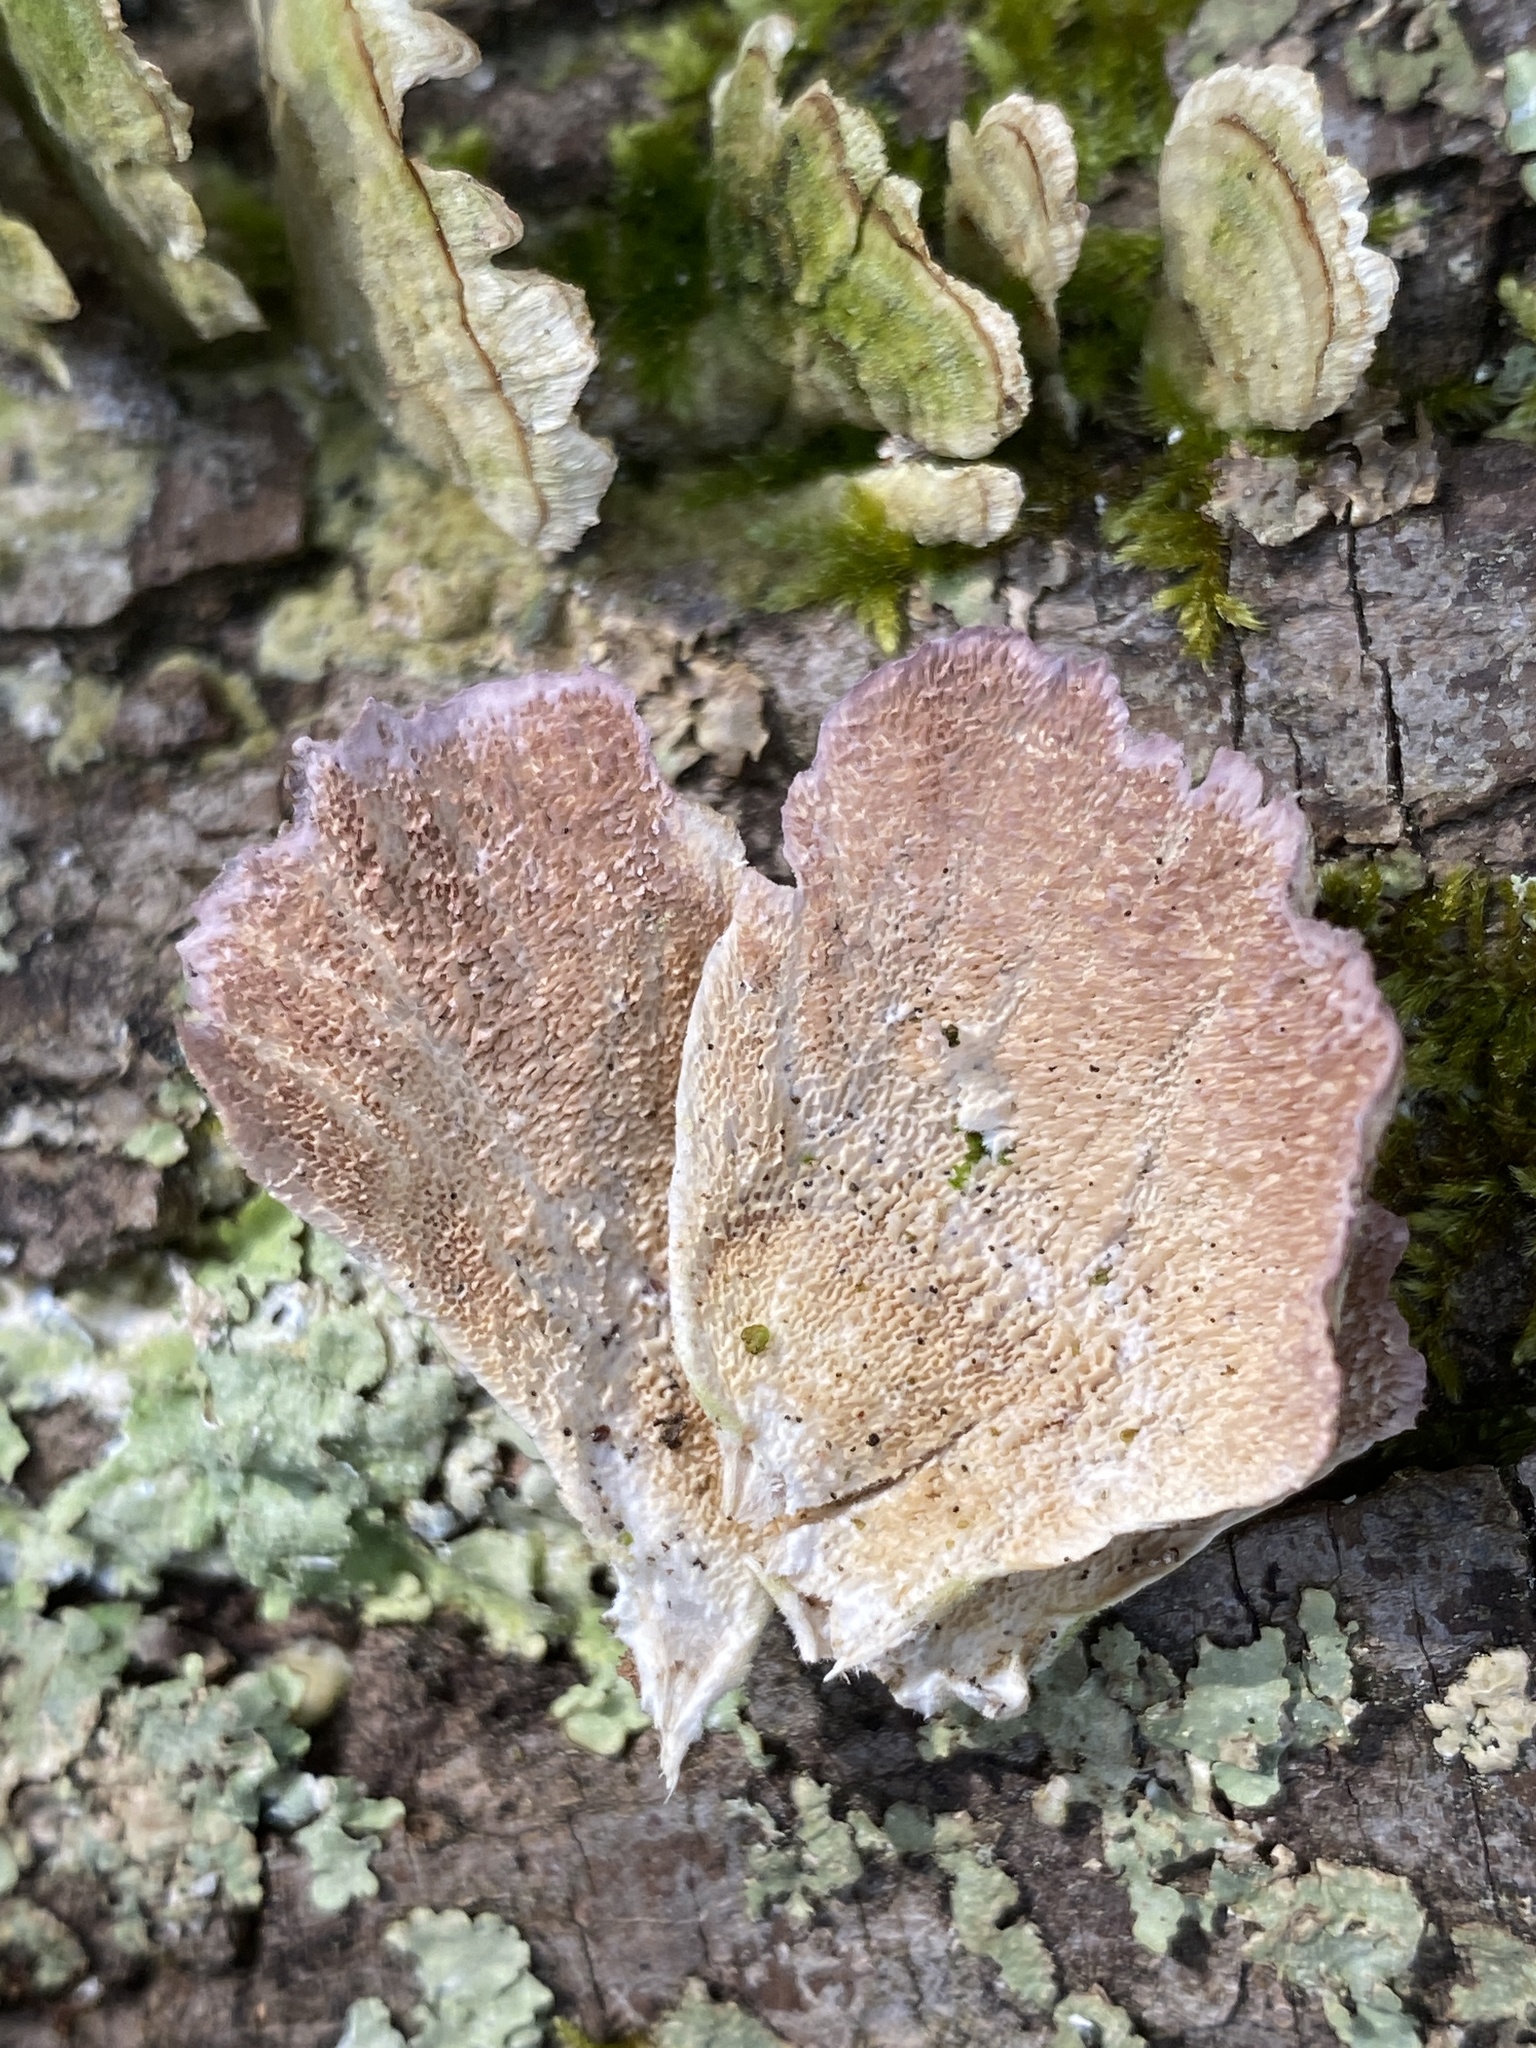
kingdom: Fungi
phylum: Basidiomycota
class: Agaricomycetes
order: Hymenochaetales
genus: Trichaptum
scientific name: Trichaptum biforme
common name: Violet-toothed polypore
